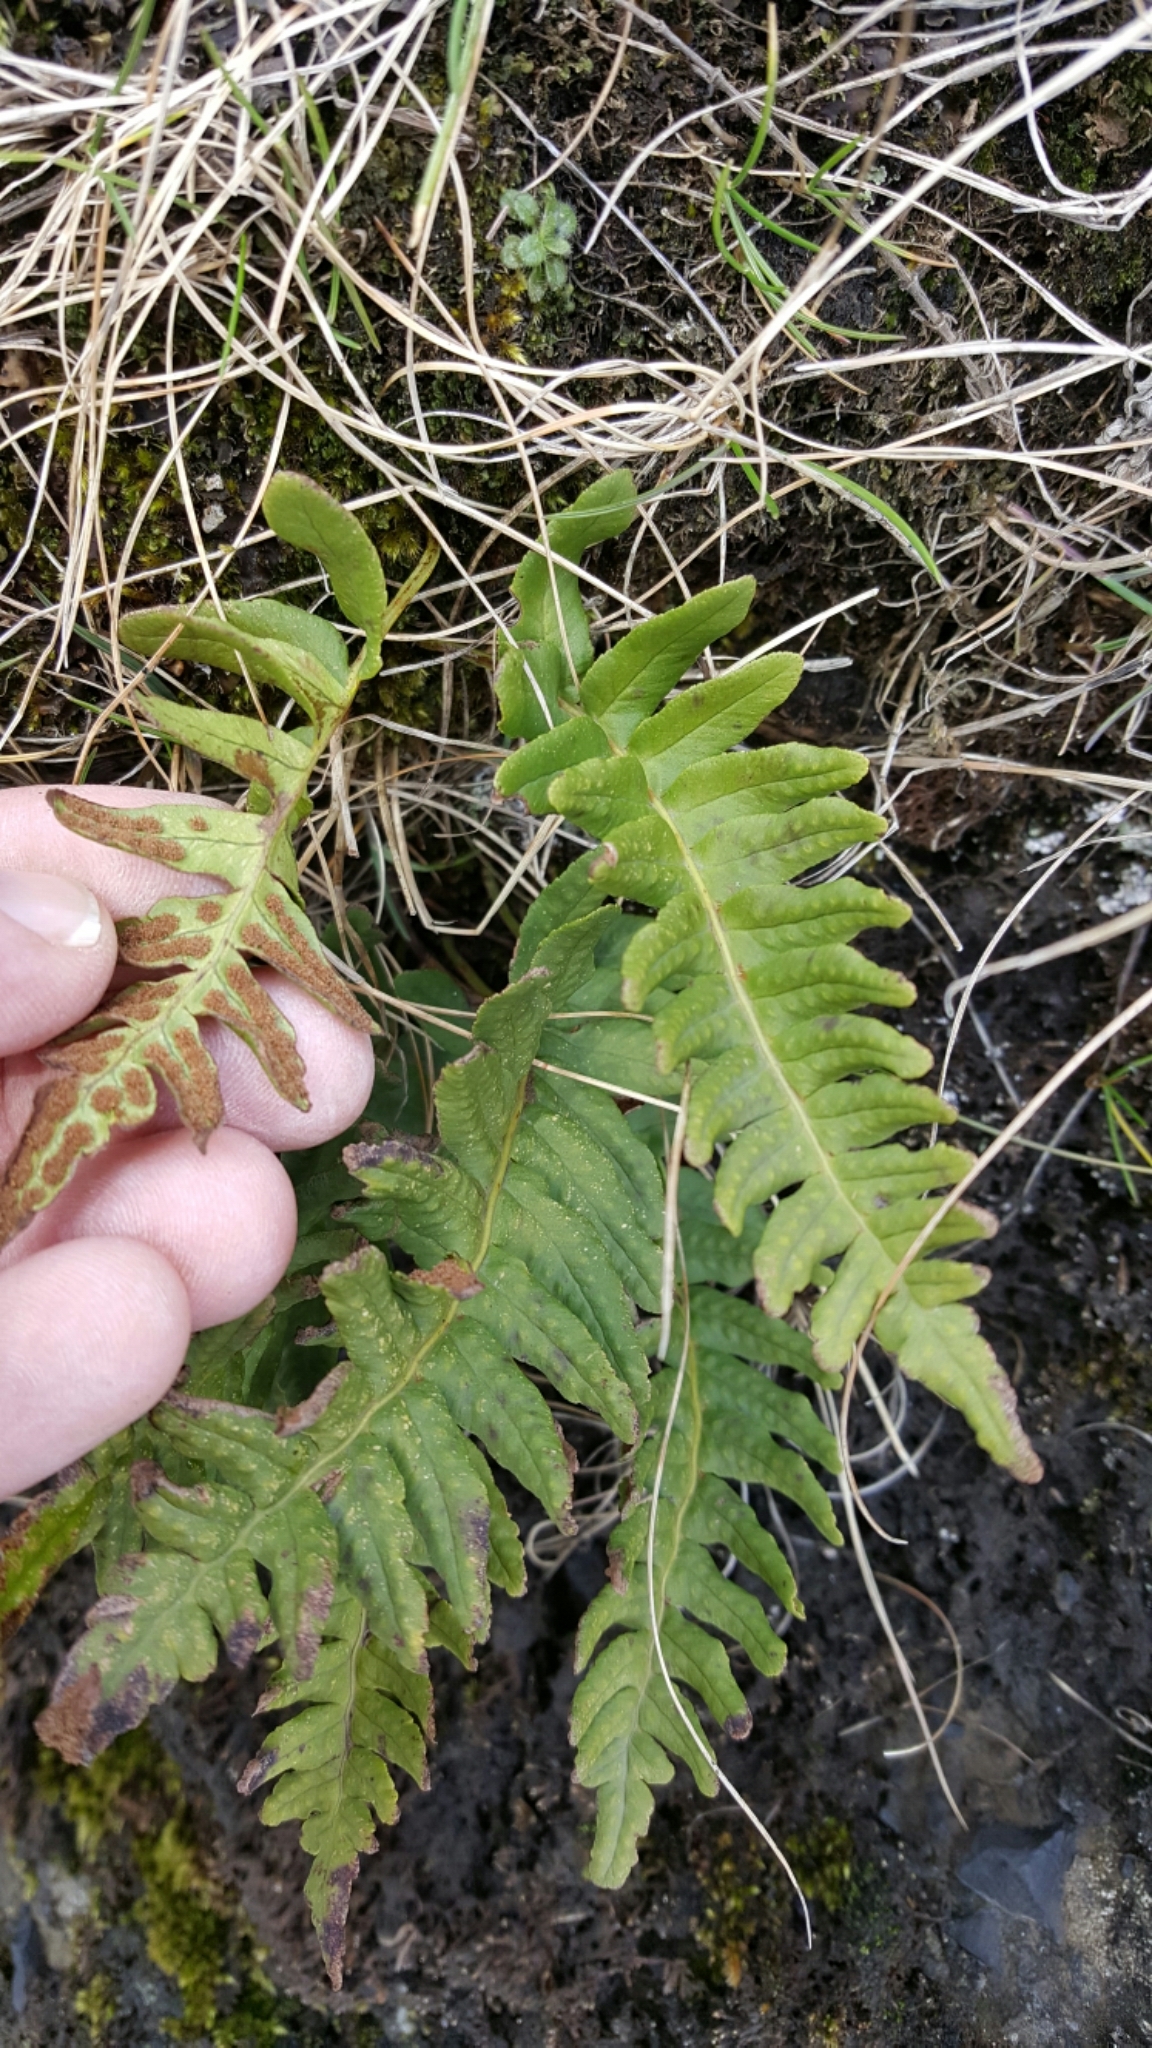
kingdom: Plantae
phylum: Tracheophyta
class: Polypodiopsida
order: Polypodiales
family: Polypodiaceae
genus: Polypodium
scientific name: Polypodium vulgare
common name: Common polypody
